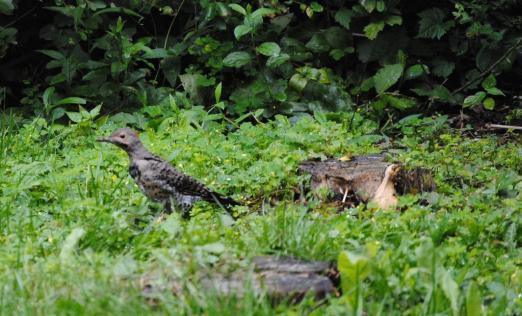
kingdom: Animalia
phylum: Chordata
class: Aves
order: Piciformes
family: Picidae
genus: Colaptes
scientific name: Colaptes auratus
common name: Northern flicker
